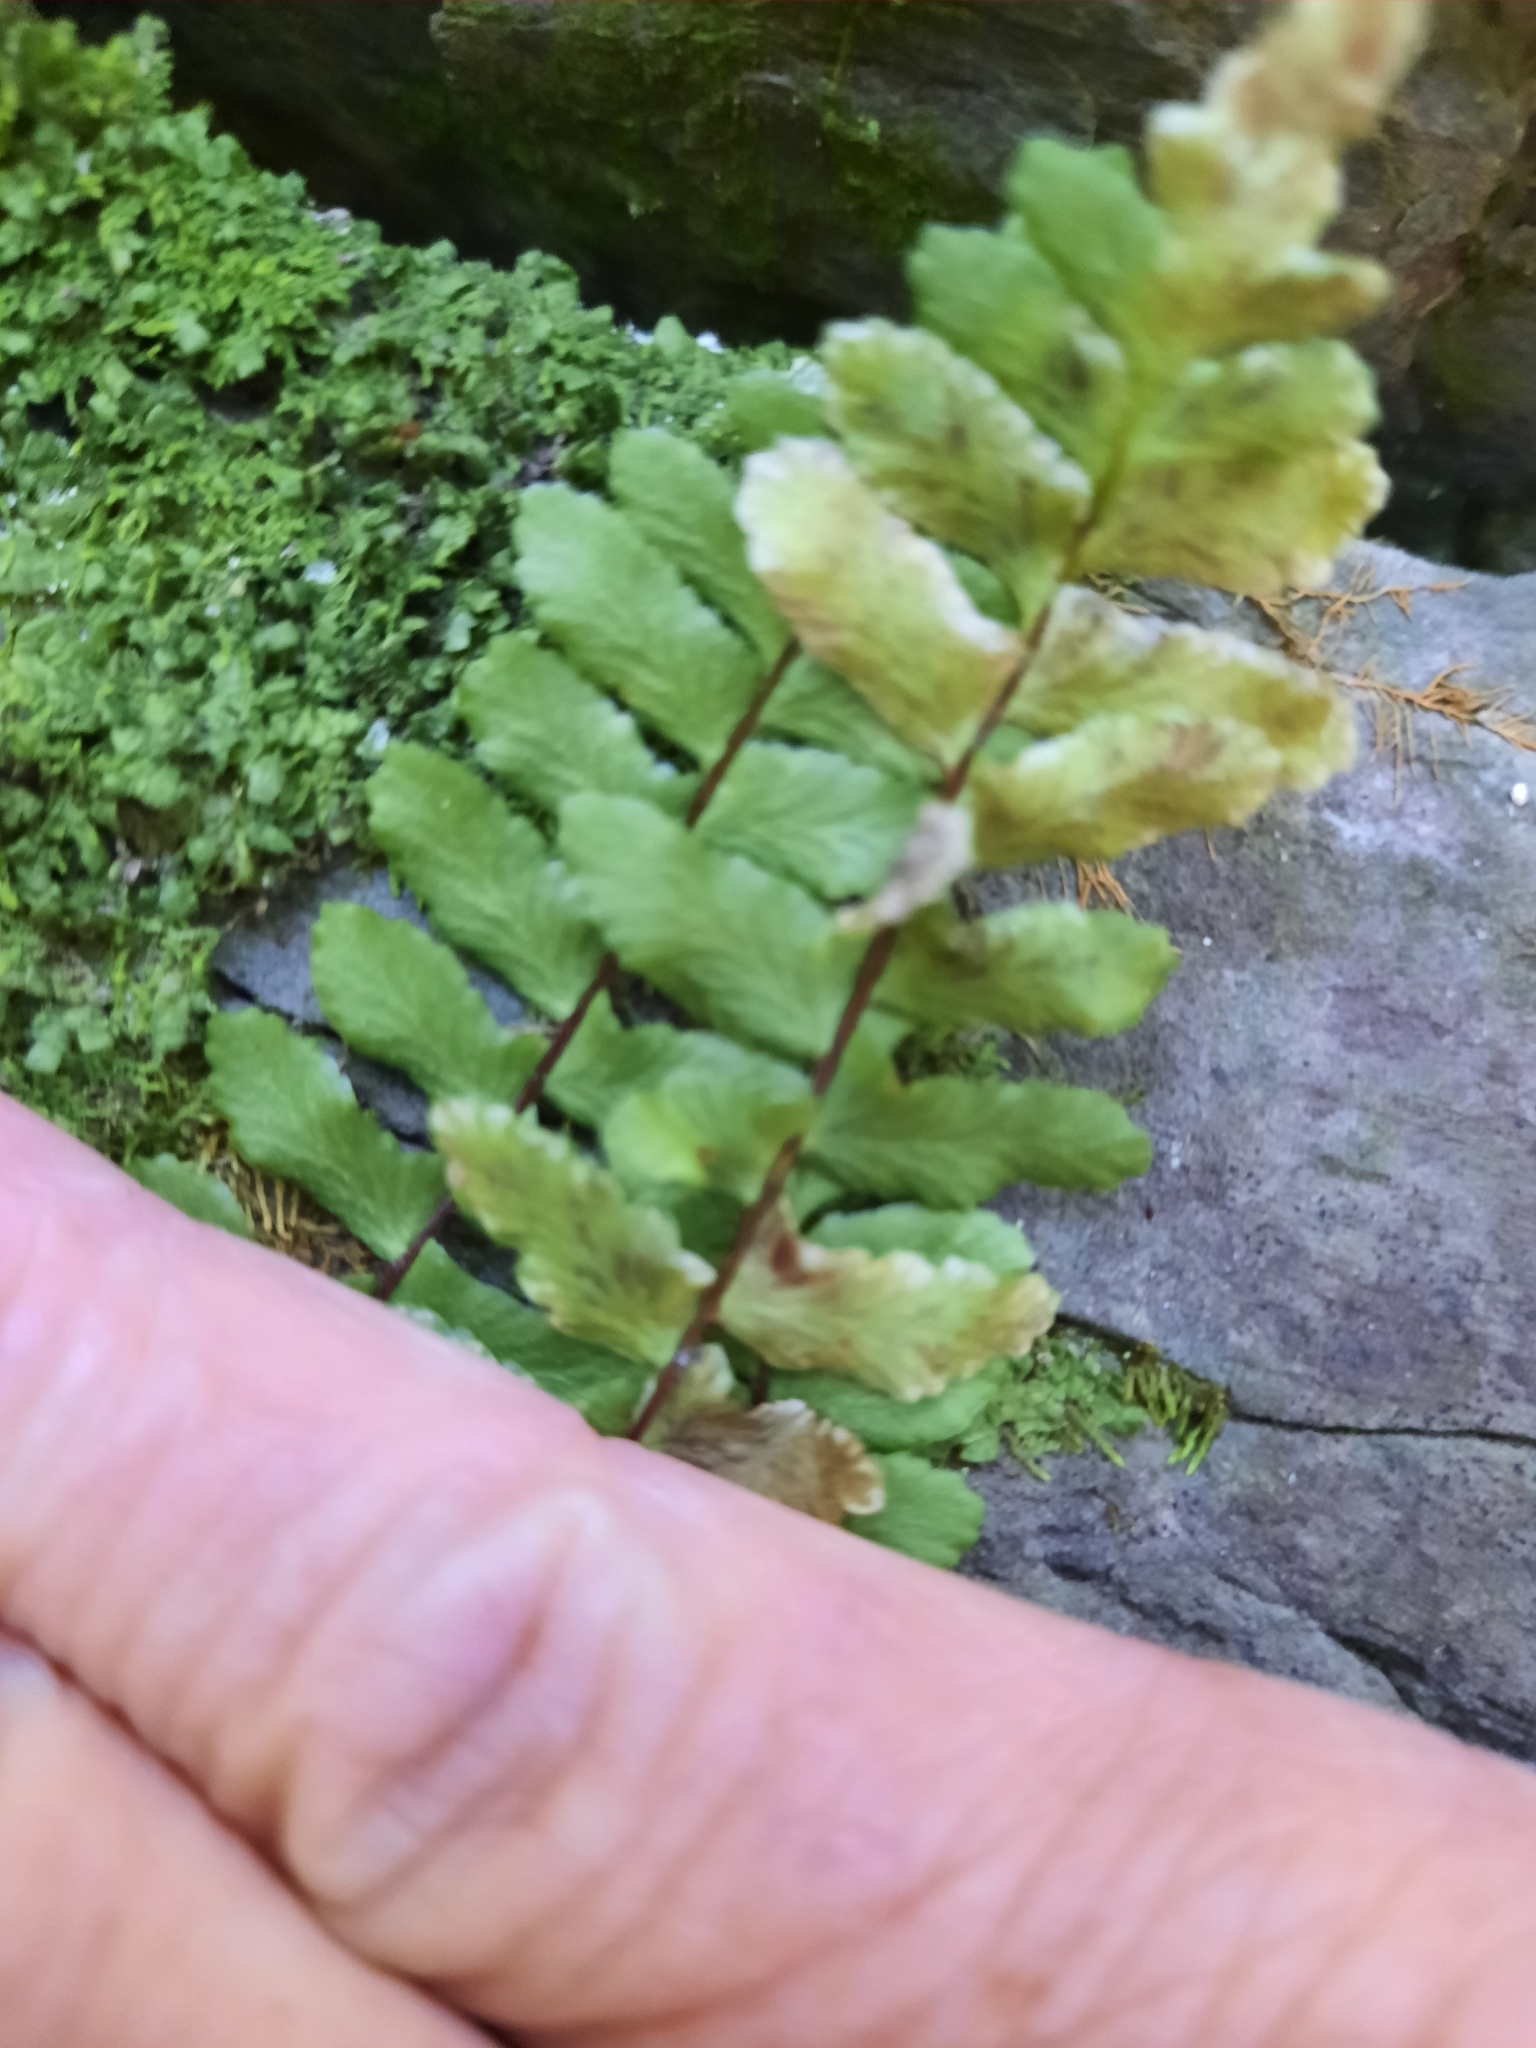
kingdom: Plantae
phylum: Tracheophyta
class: Polypodiopsida
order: Polypodiales
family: Aspleniaceae
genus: Asplenium
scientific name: Asplenium platyneuron
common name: Ebony spleenwort
